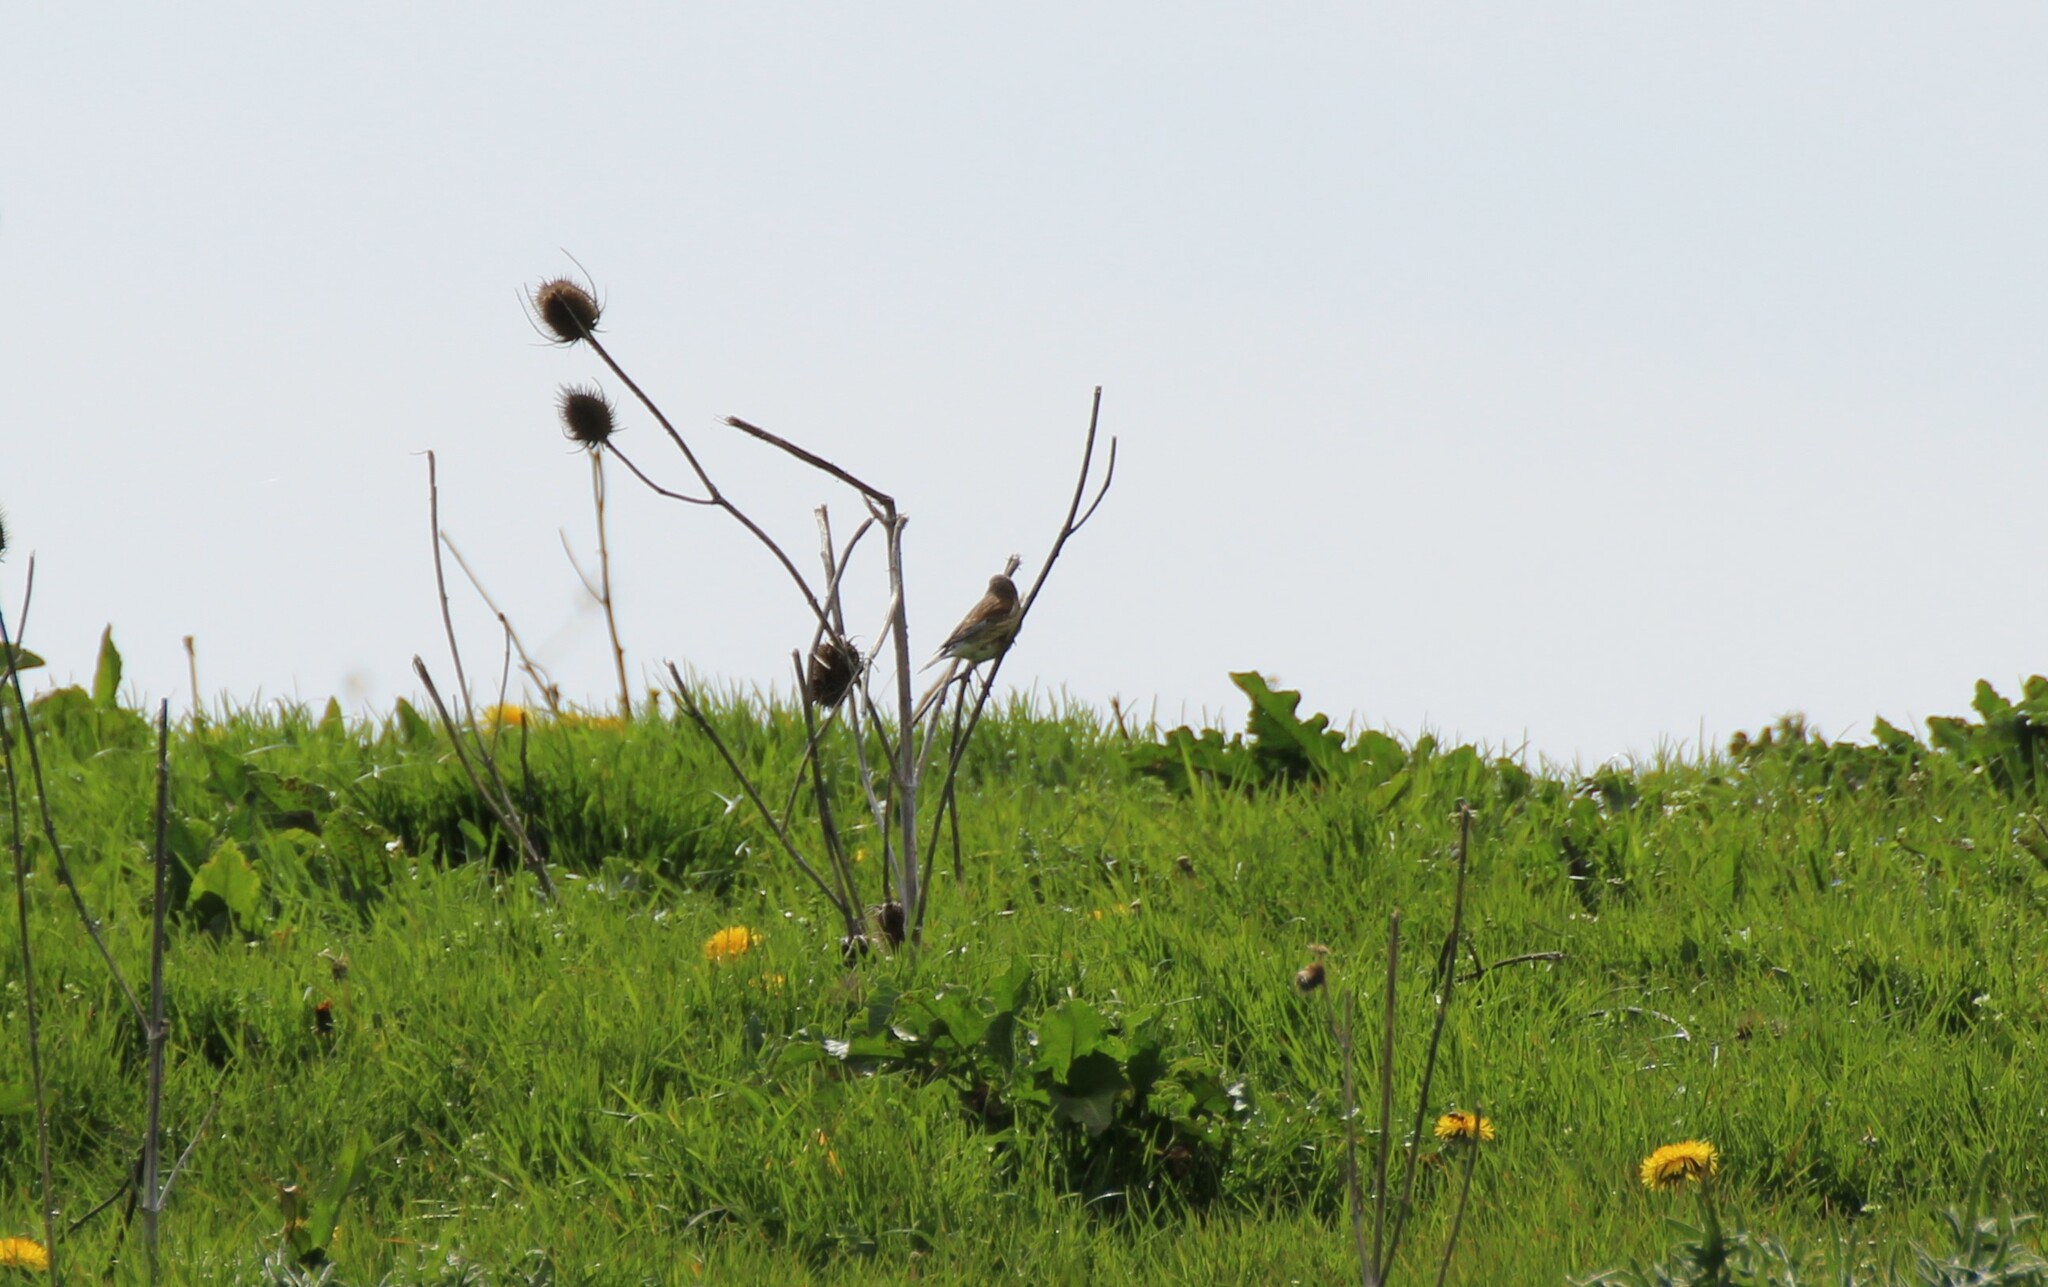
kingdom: Animalia
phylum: Chordata
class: Aves
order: Passeriformes
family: Fringillidae
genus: Linaria
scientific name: Linaria cannabina
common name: Common linnet
